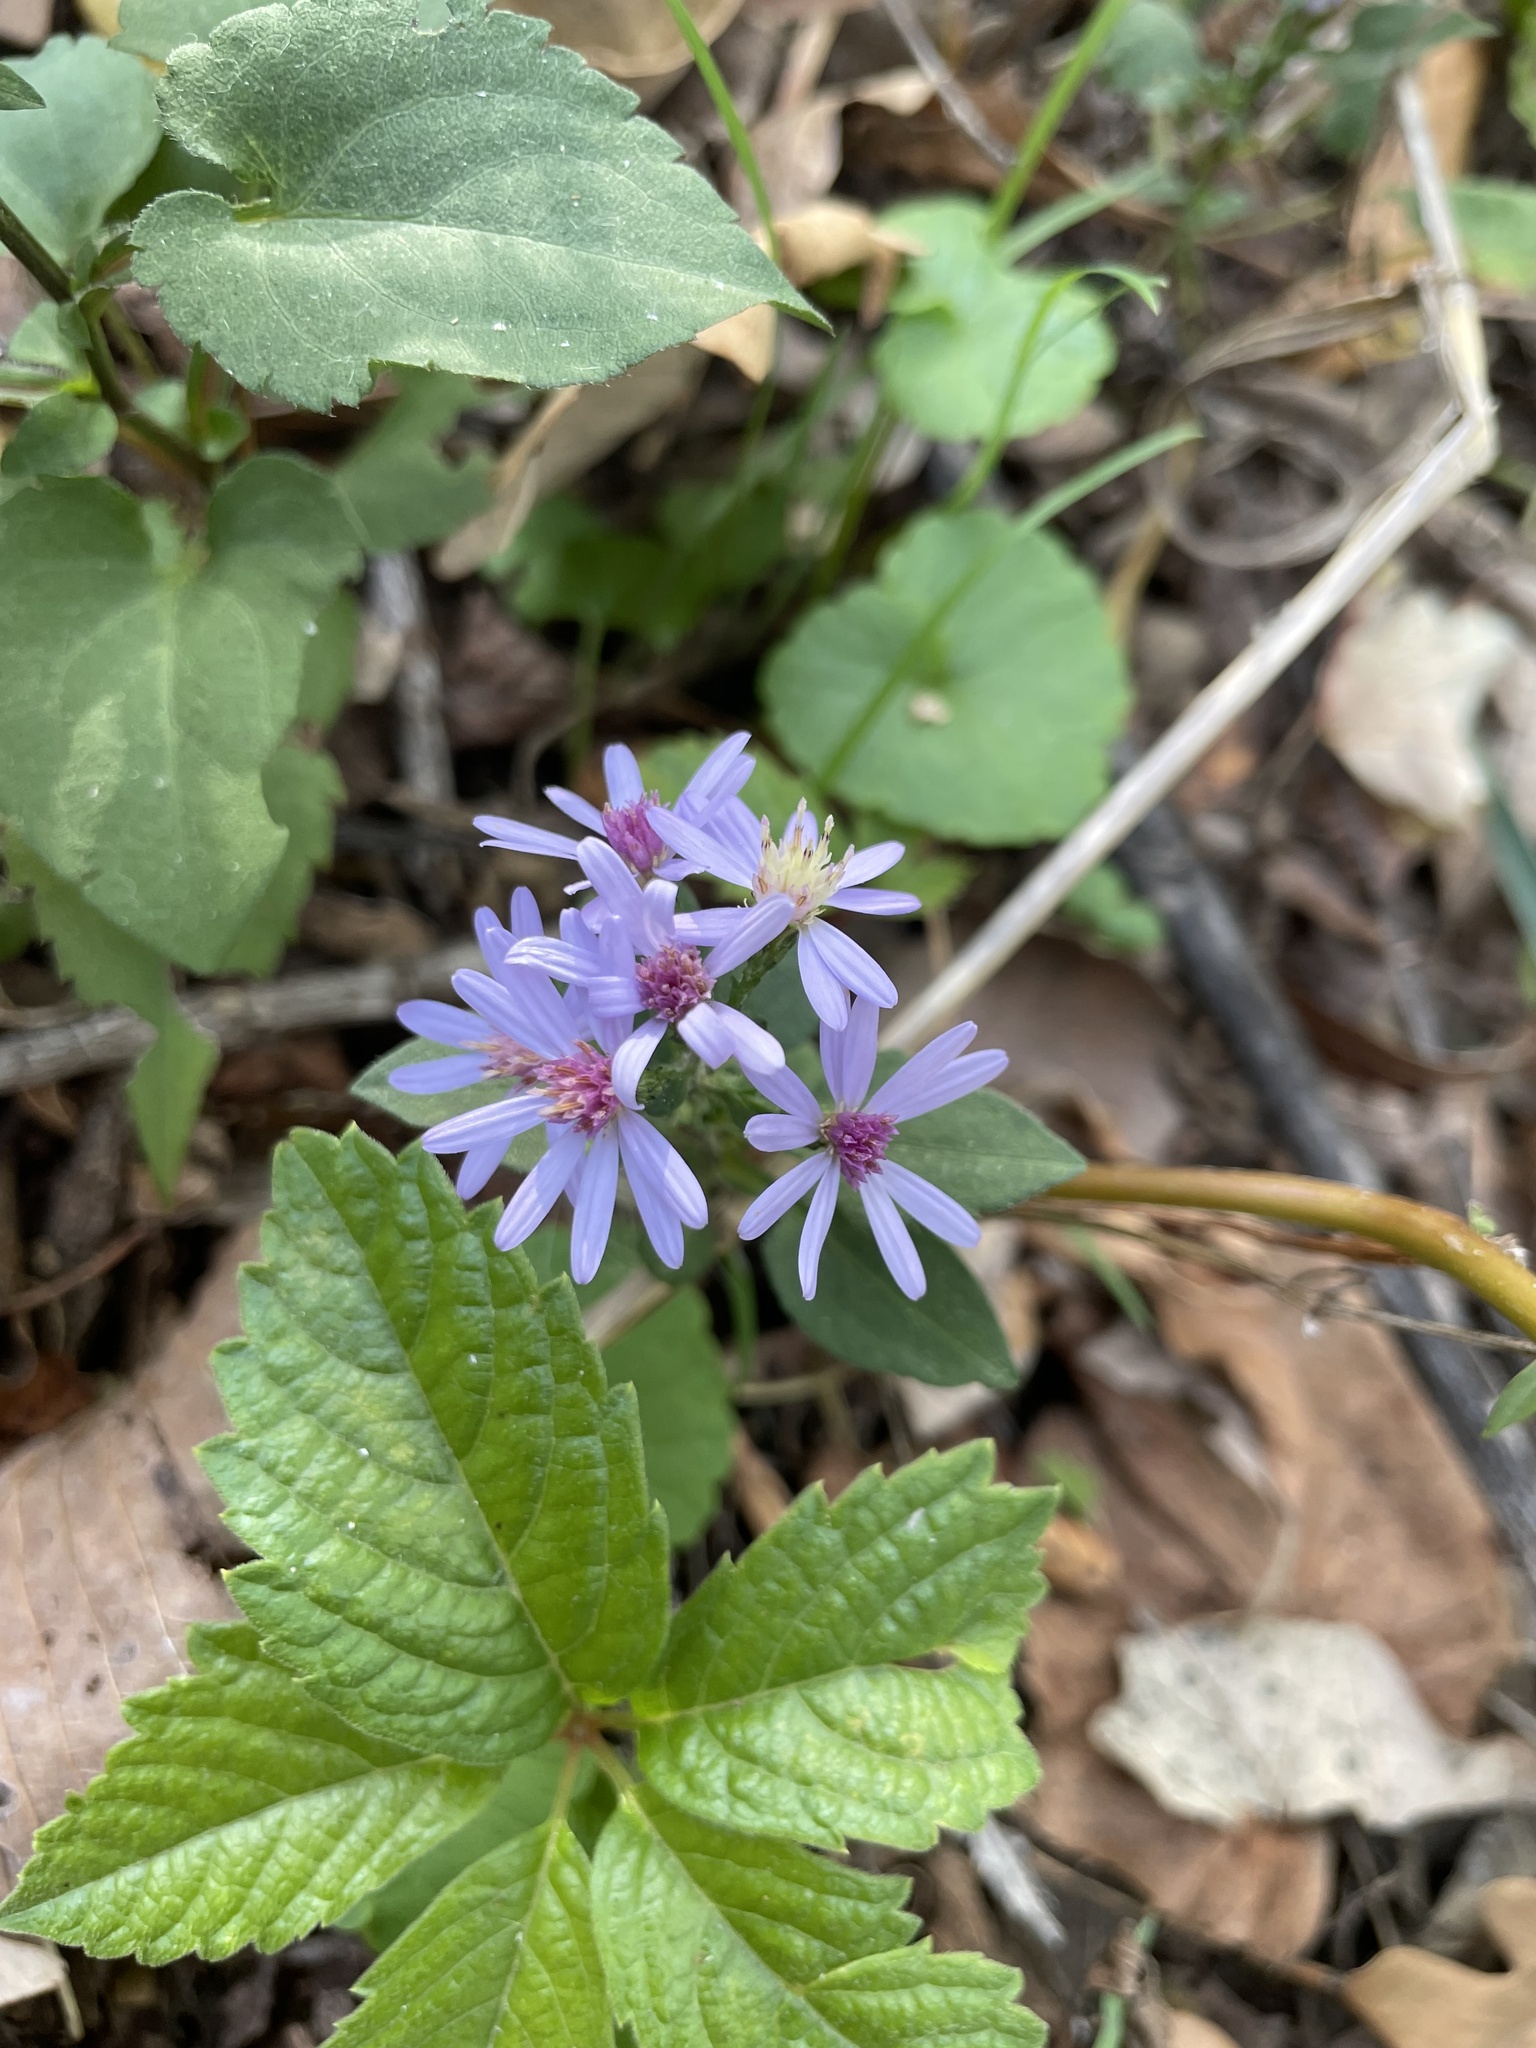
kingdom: Plantae
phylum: Tracheophyta
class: Magnoliopsida
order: Asterales
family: Asteraceae
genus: Symphyotrichum
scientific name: Symphyotrichum cordifolium
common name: Beeweed
